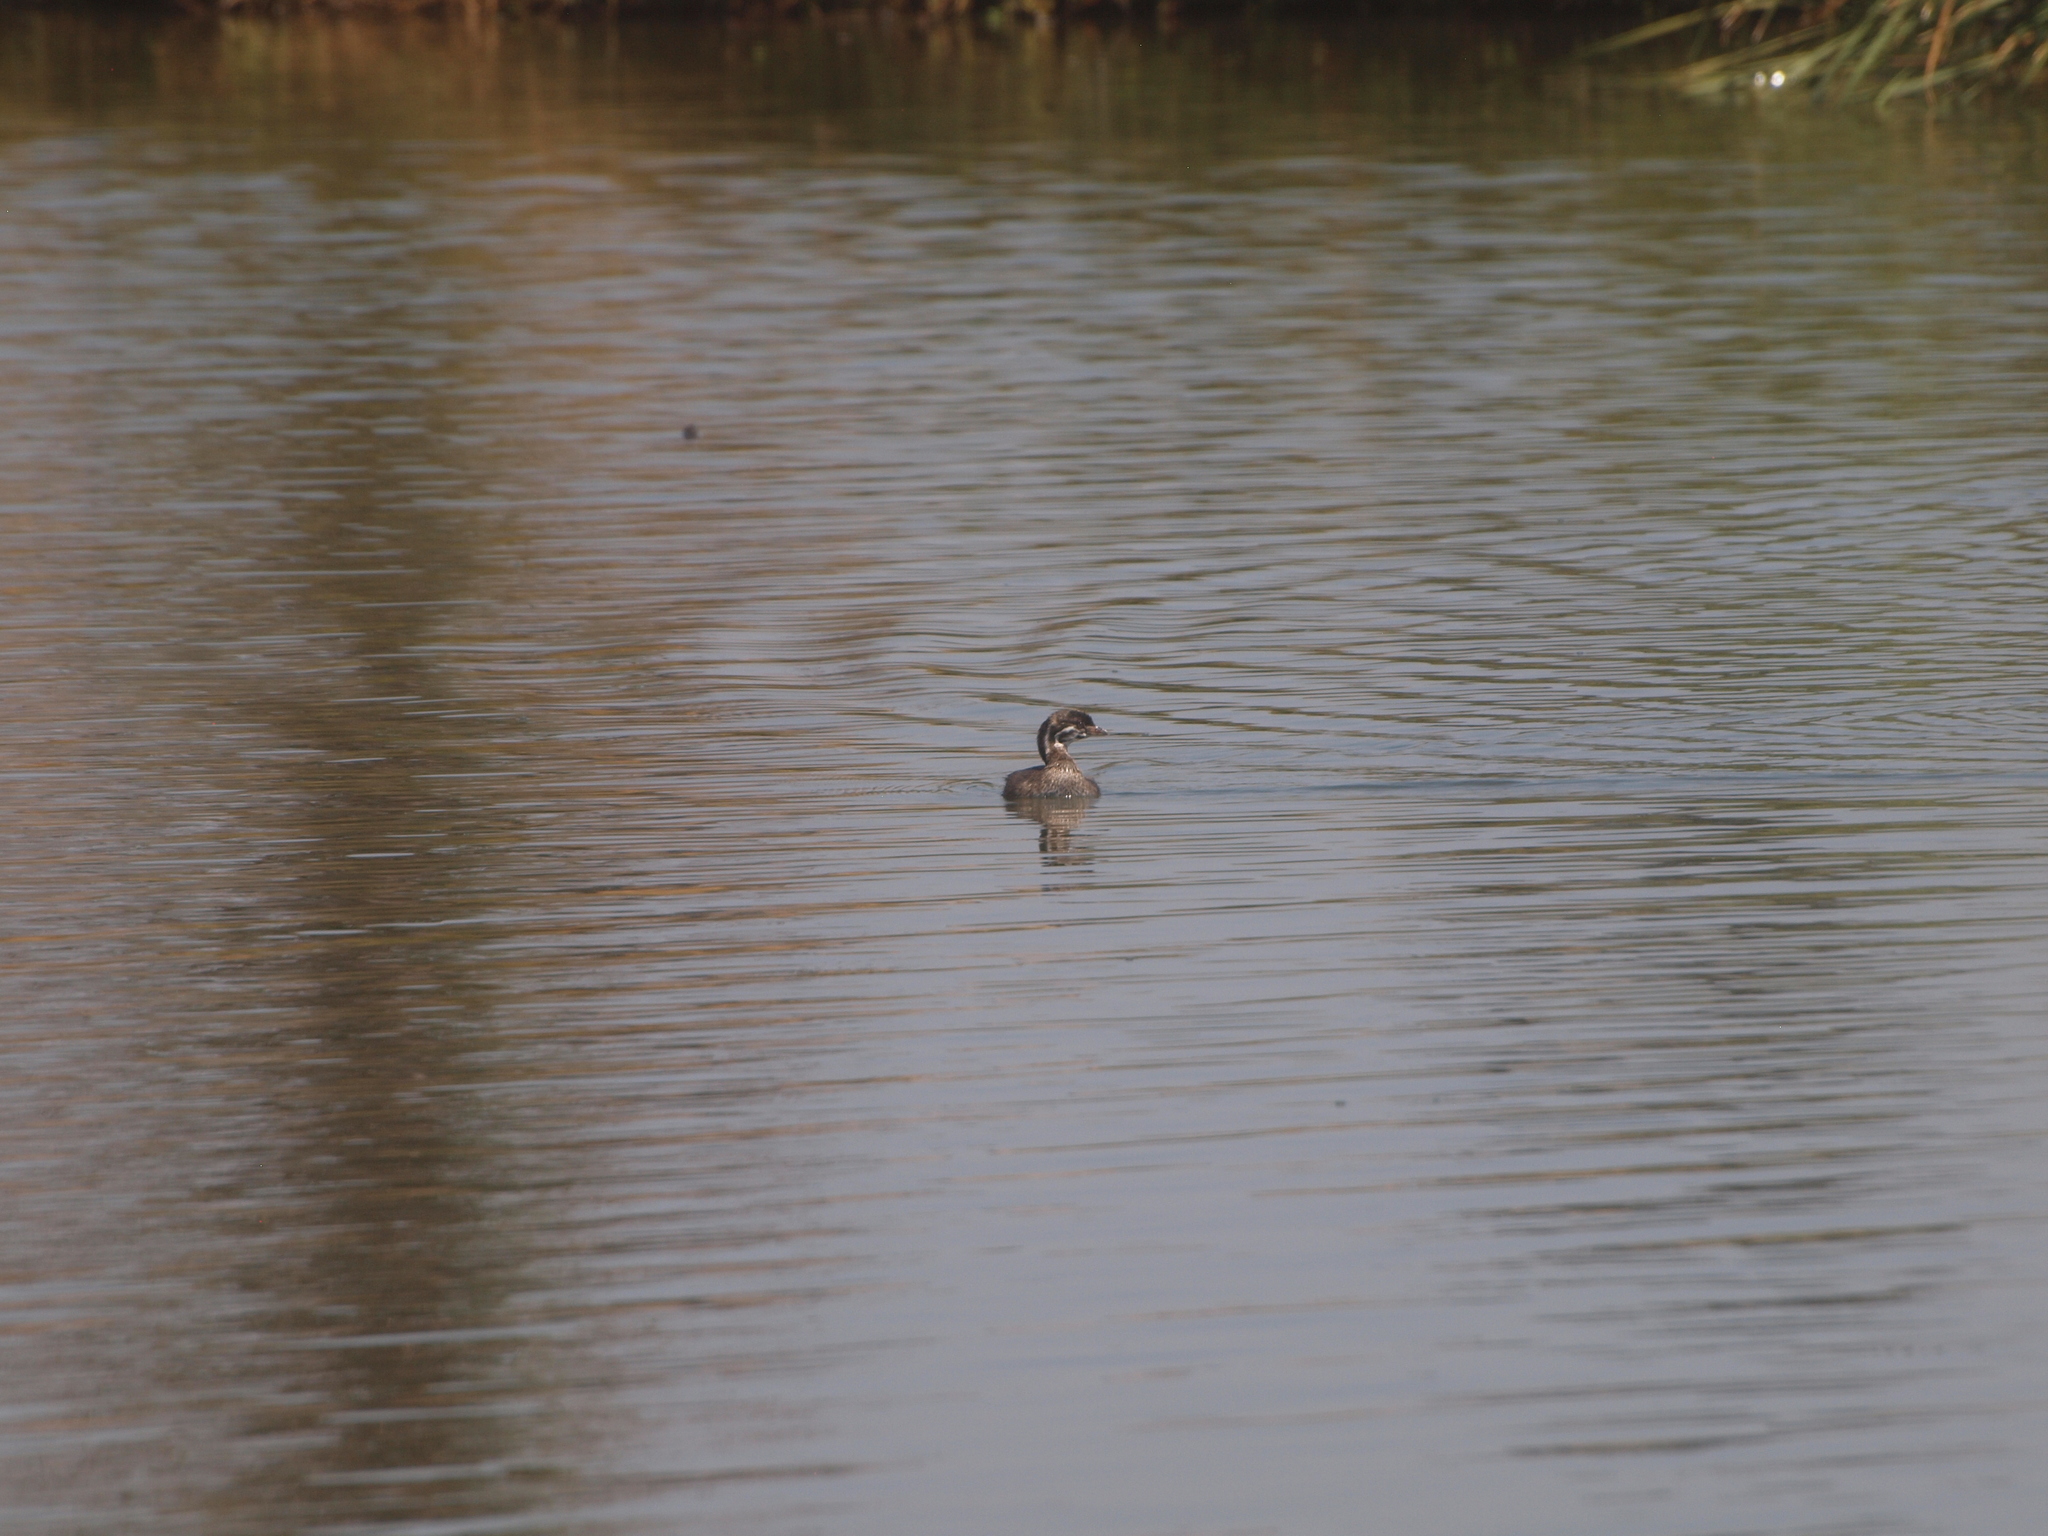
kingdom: Animalia
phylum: Chordata
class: Aves
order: Podicipediformes
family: Podicipedidae
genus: Podilymbus
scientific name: Podilymbus podiceps
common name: Pied-billed grebe
